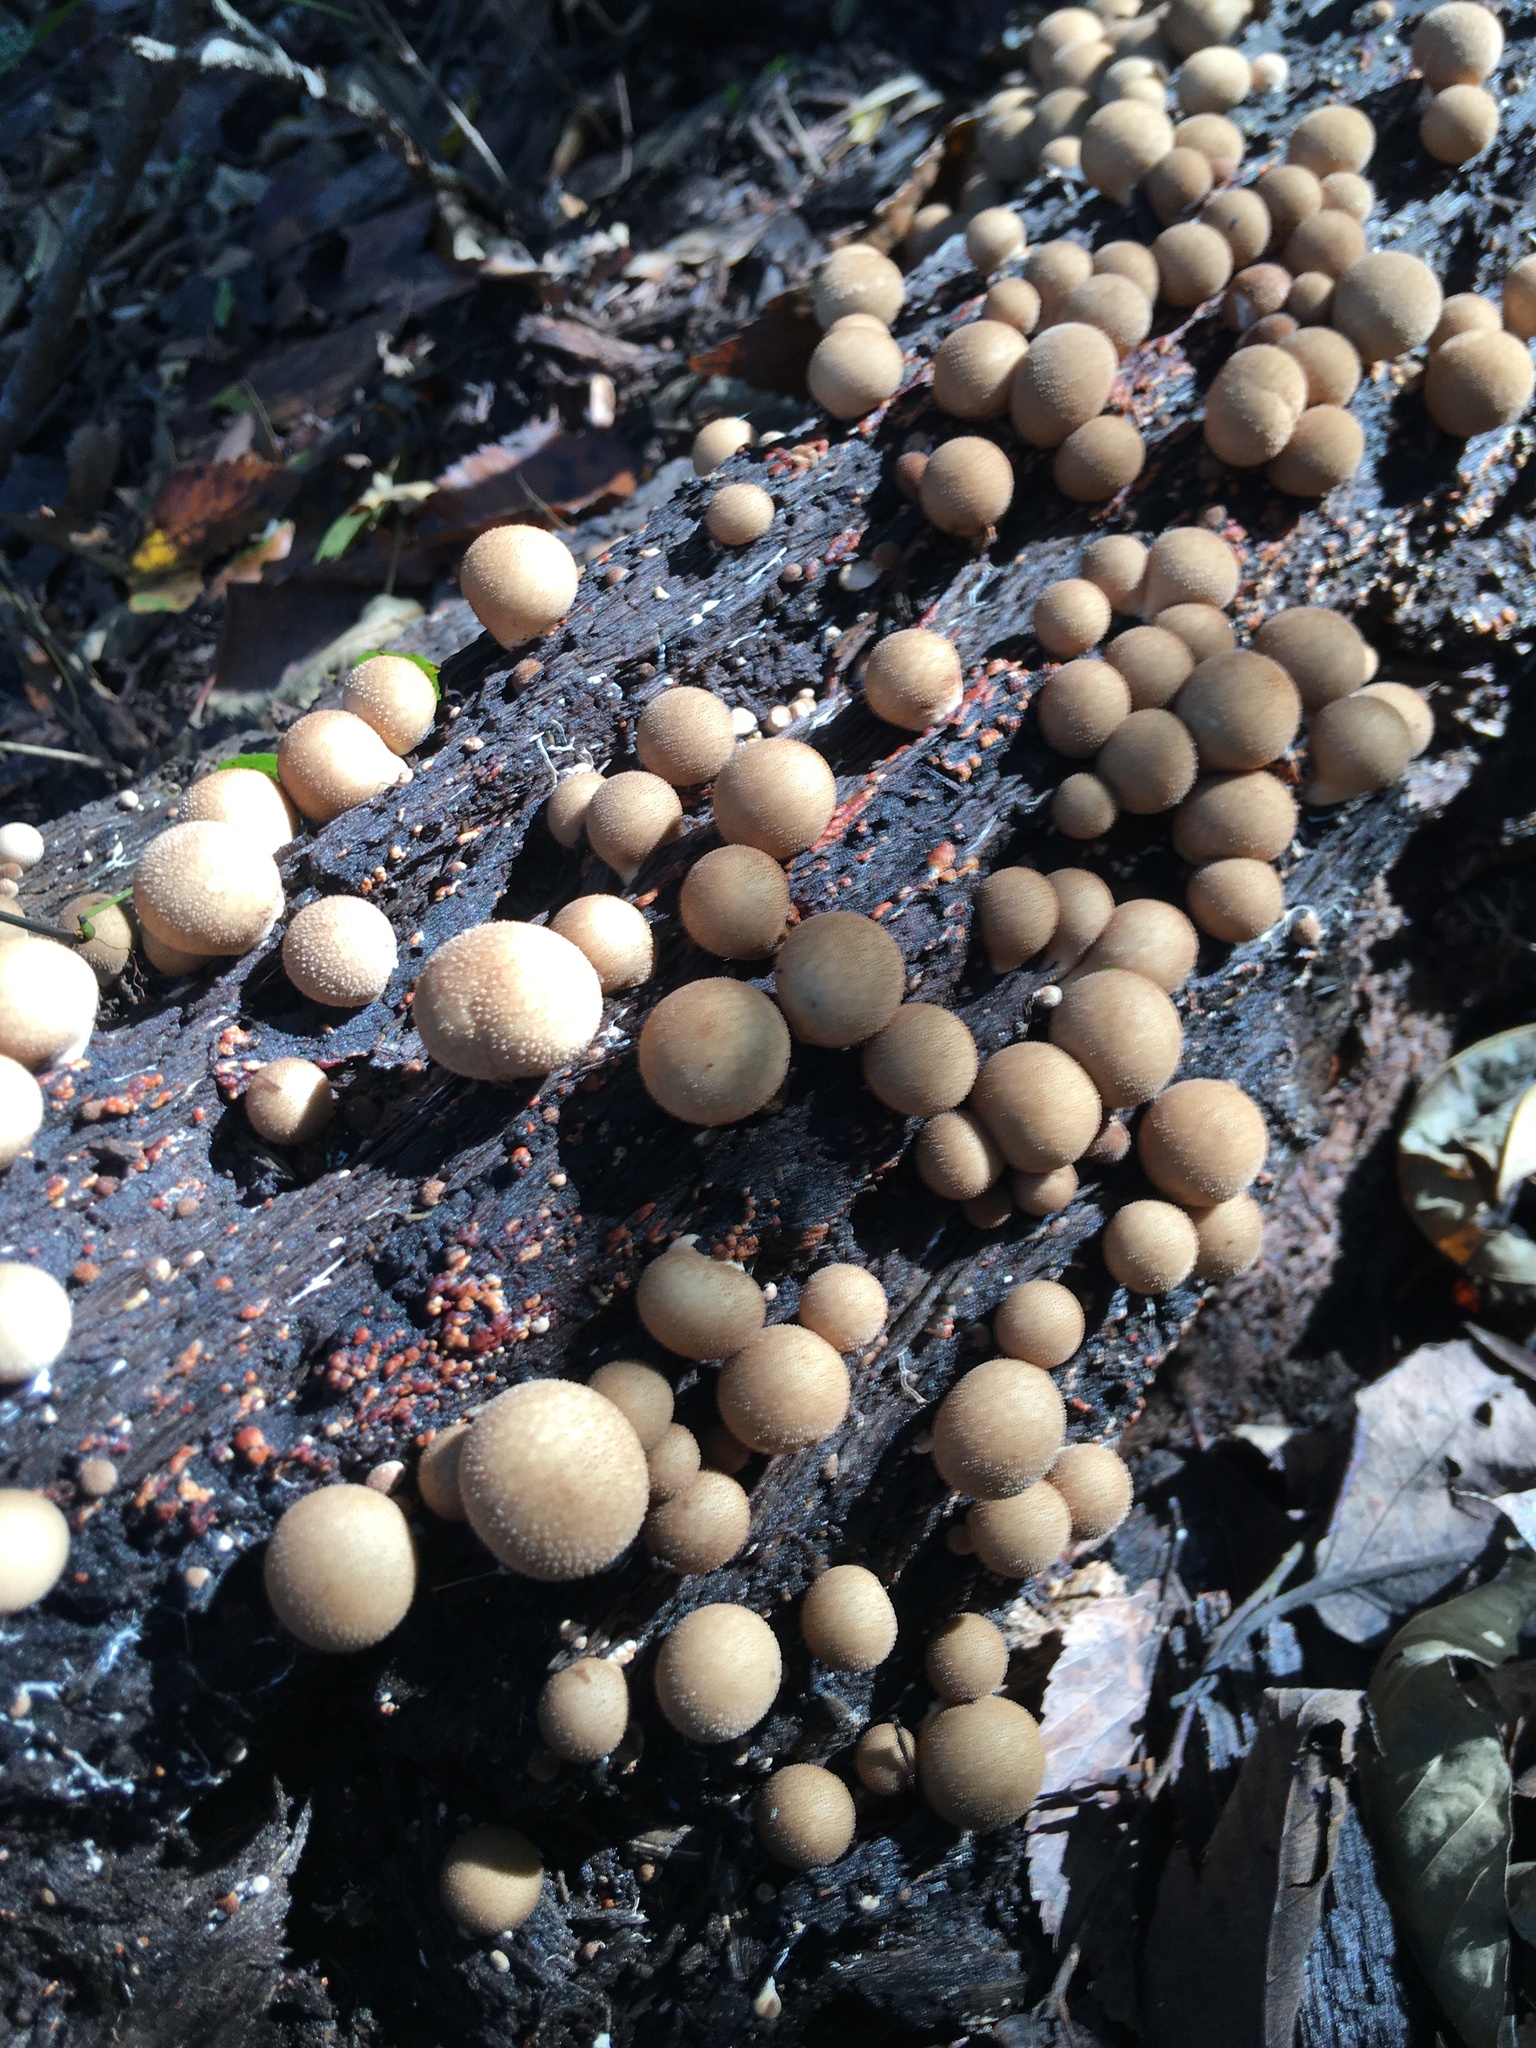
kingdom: Fungi
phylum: Basidiomycota
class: Agaricomycetes
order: Agaricales
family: Lycoperdaceae
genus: Apioperdon
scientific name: Apioperdon pyriforme
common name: Pear-shaped puffball
